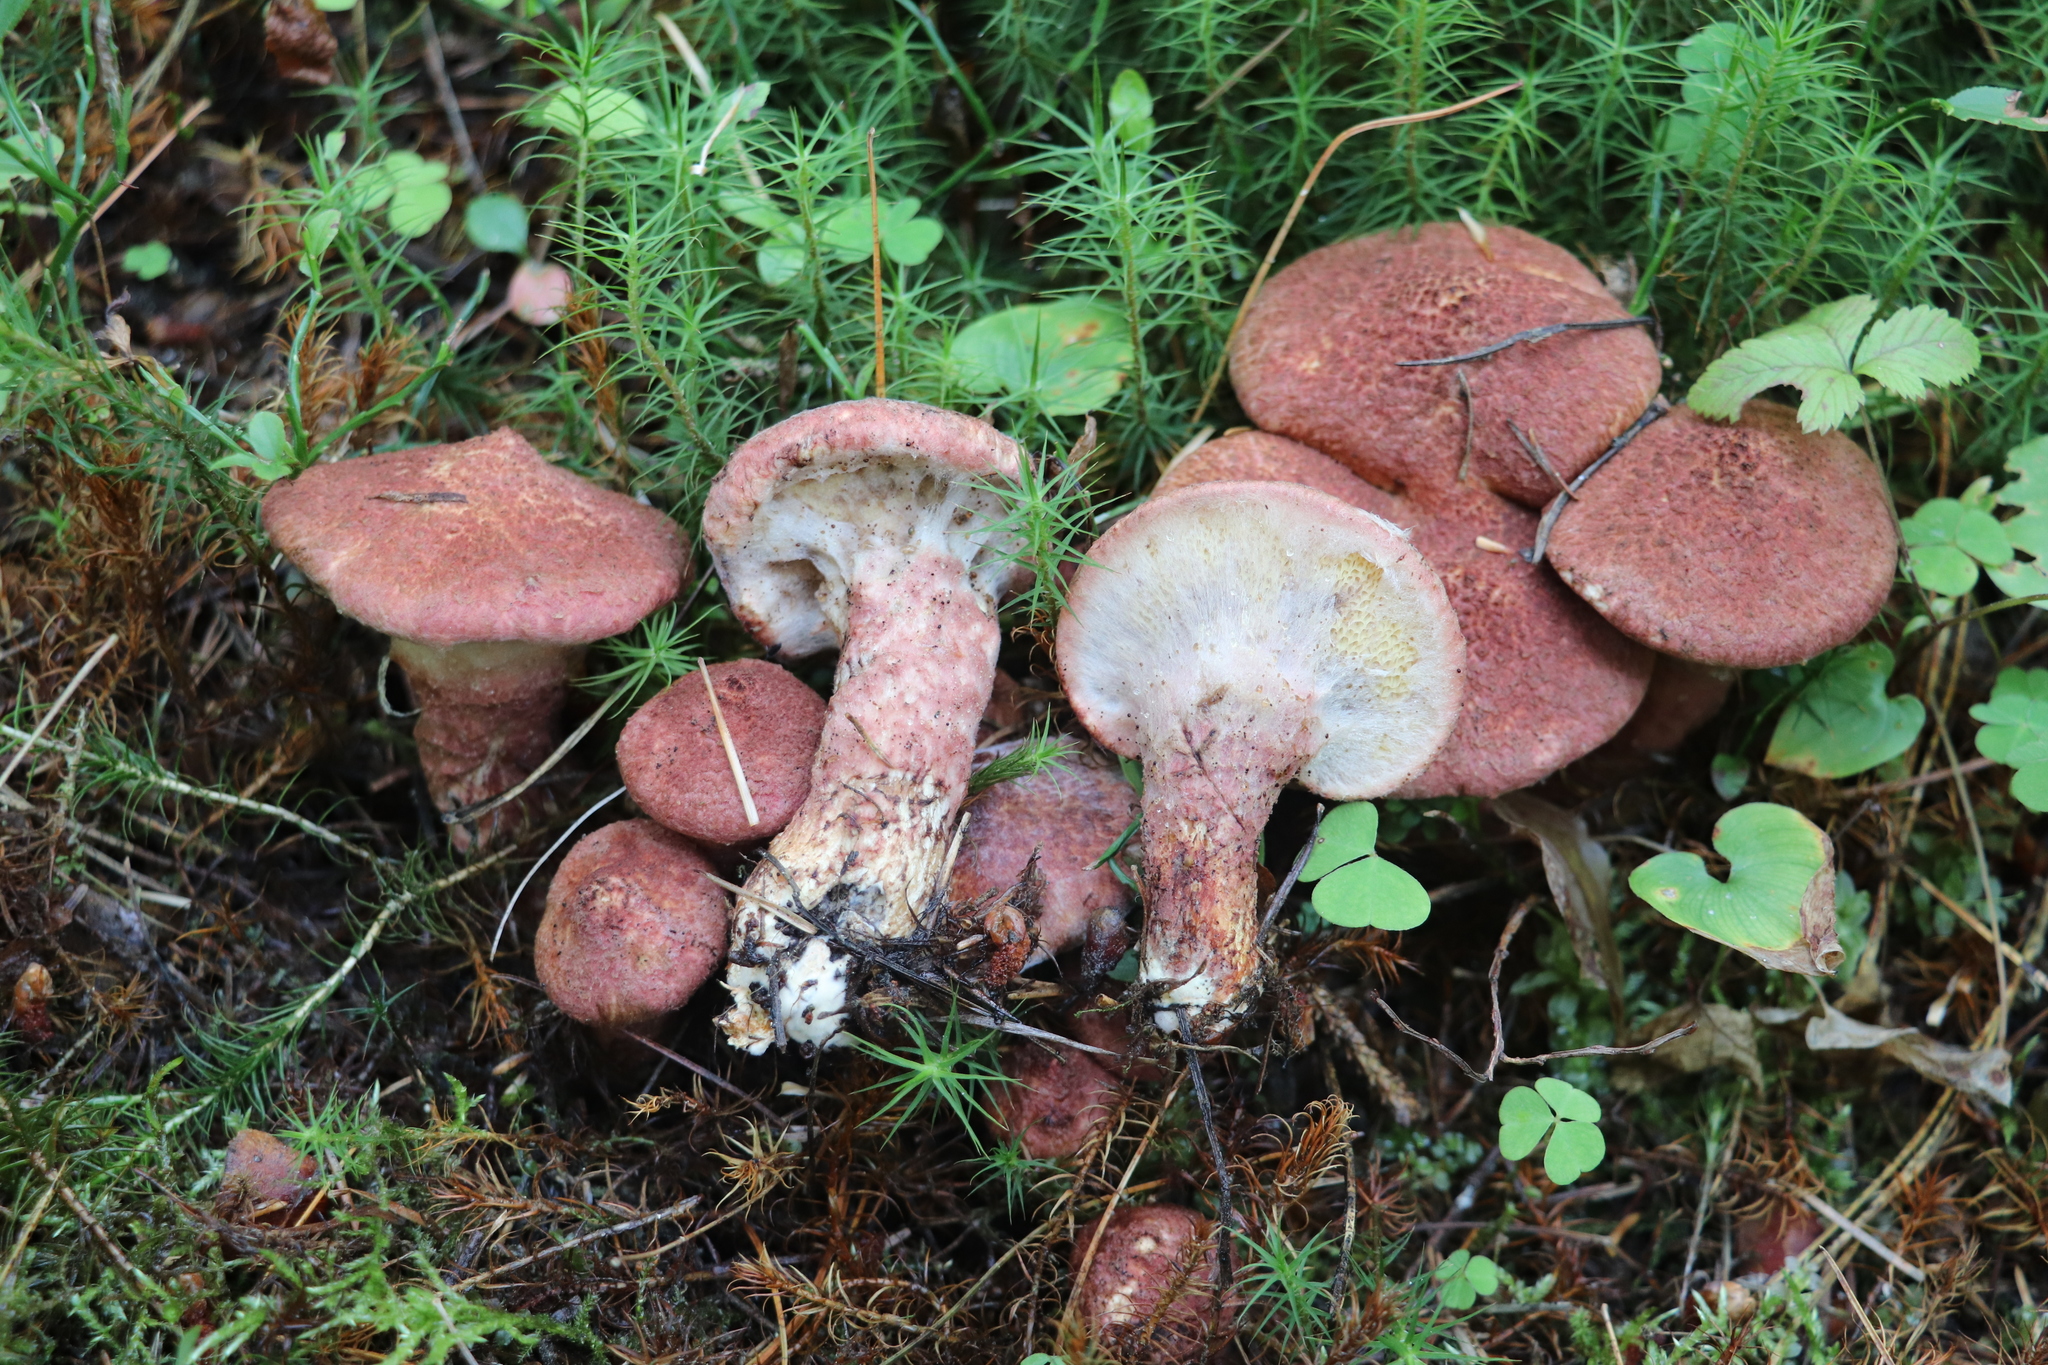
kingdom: Fungi
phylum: Basidiomycota
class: Agaricomycetes
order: Boletales
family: Suillaceae
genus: Suillus
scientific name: Suillus spraguei
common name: Painted suillus
